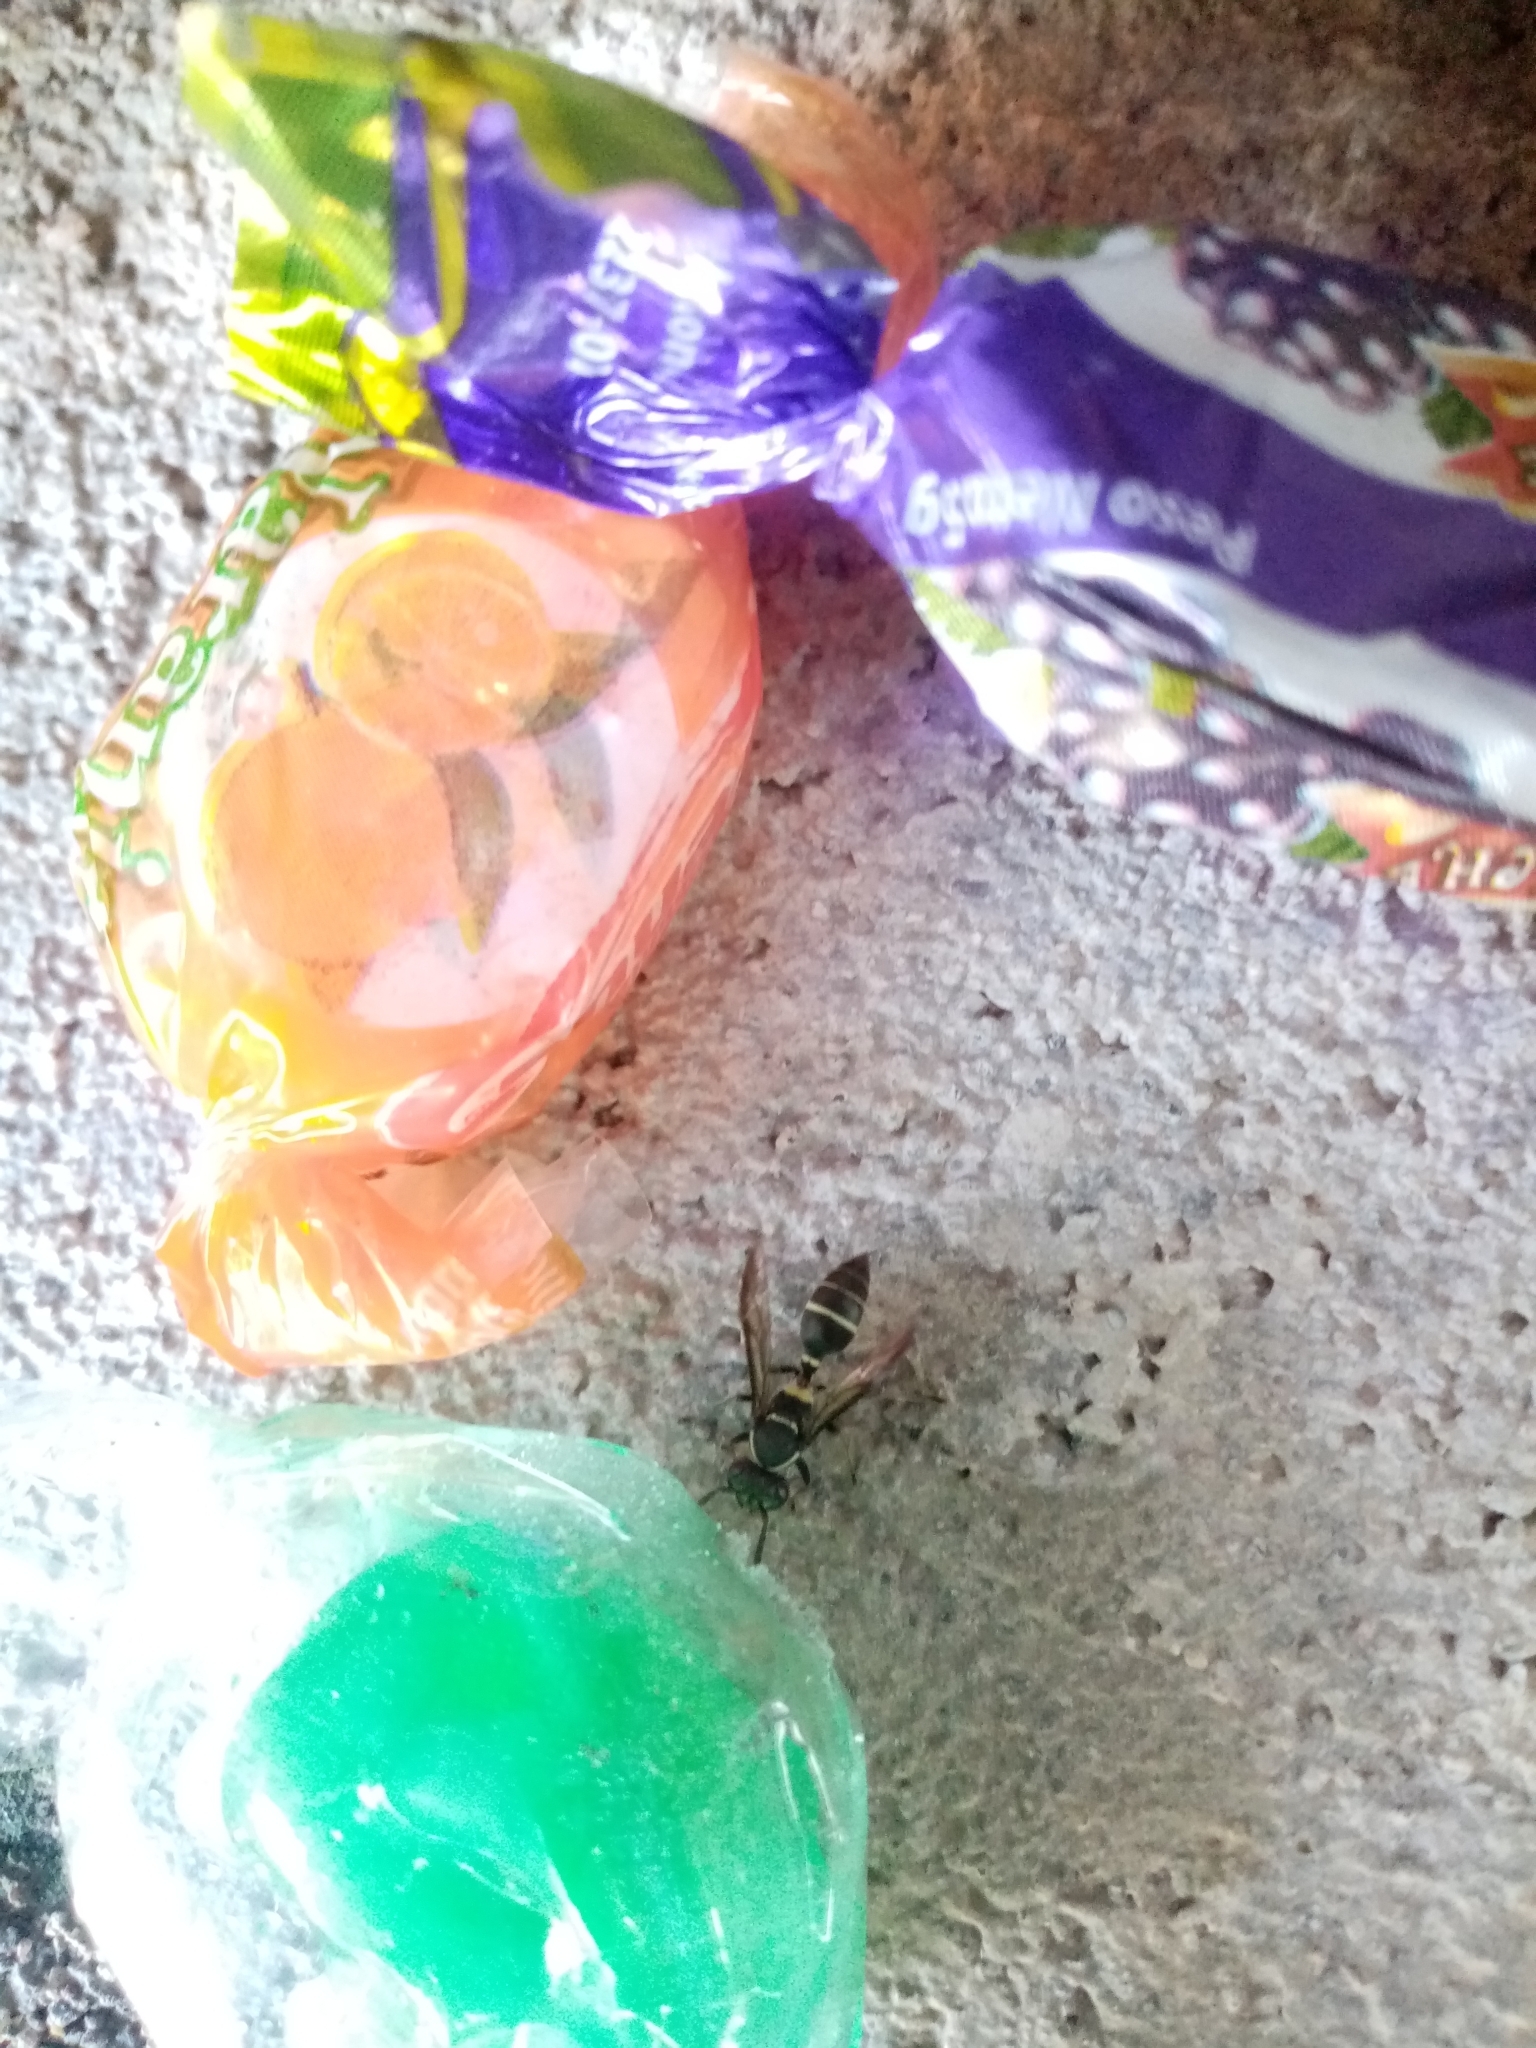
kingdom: Animalia
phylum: Arthropoda
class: Insecta
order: Hymenoptera
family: Eumenidae
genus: Polybia
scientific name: Polybia plebeja
